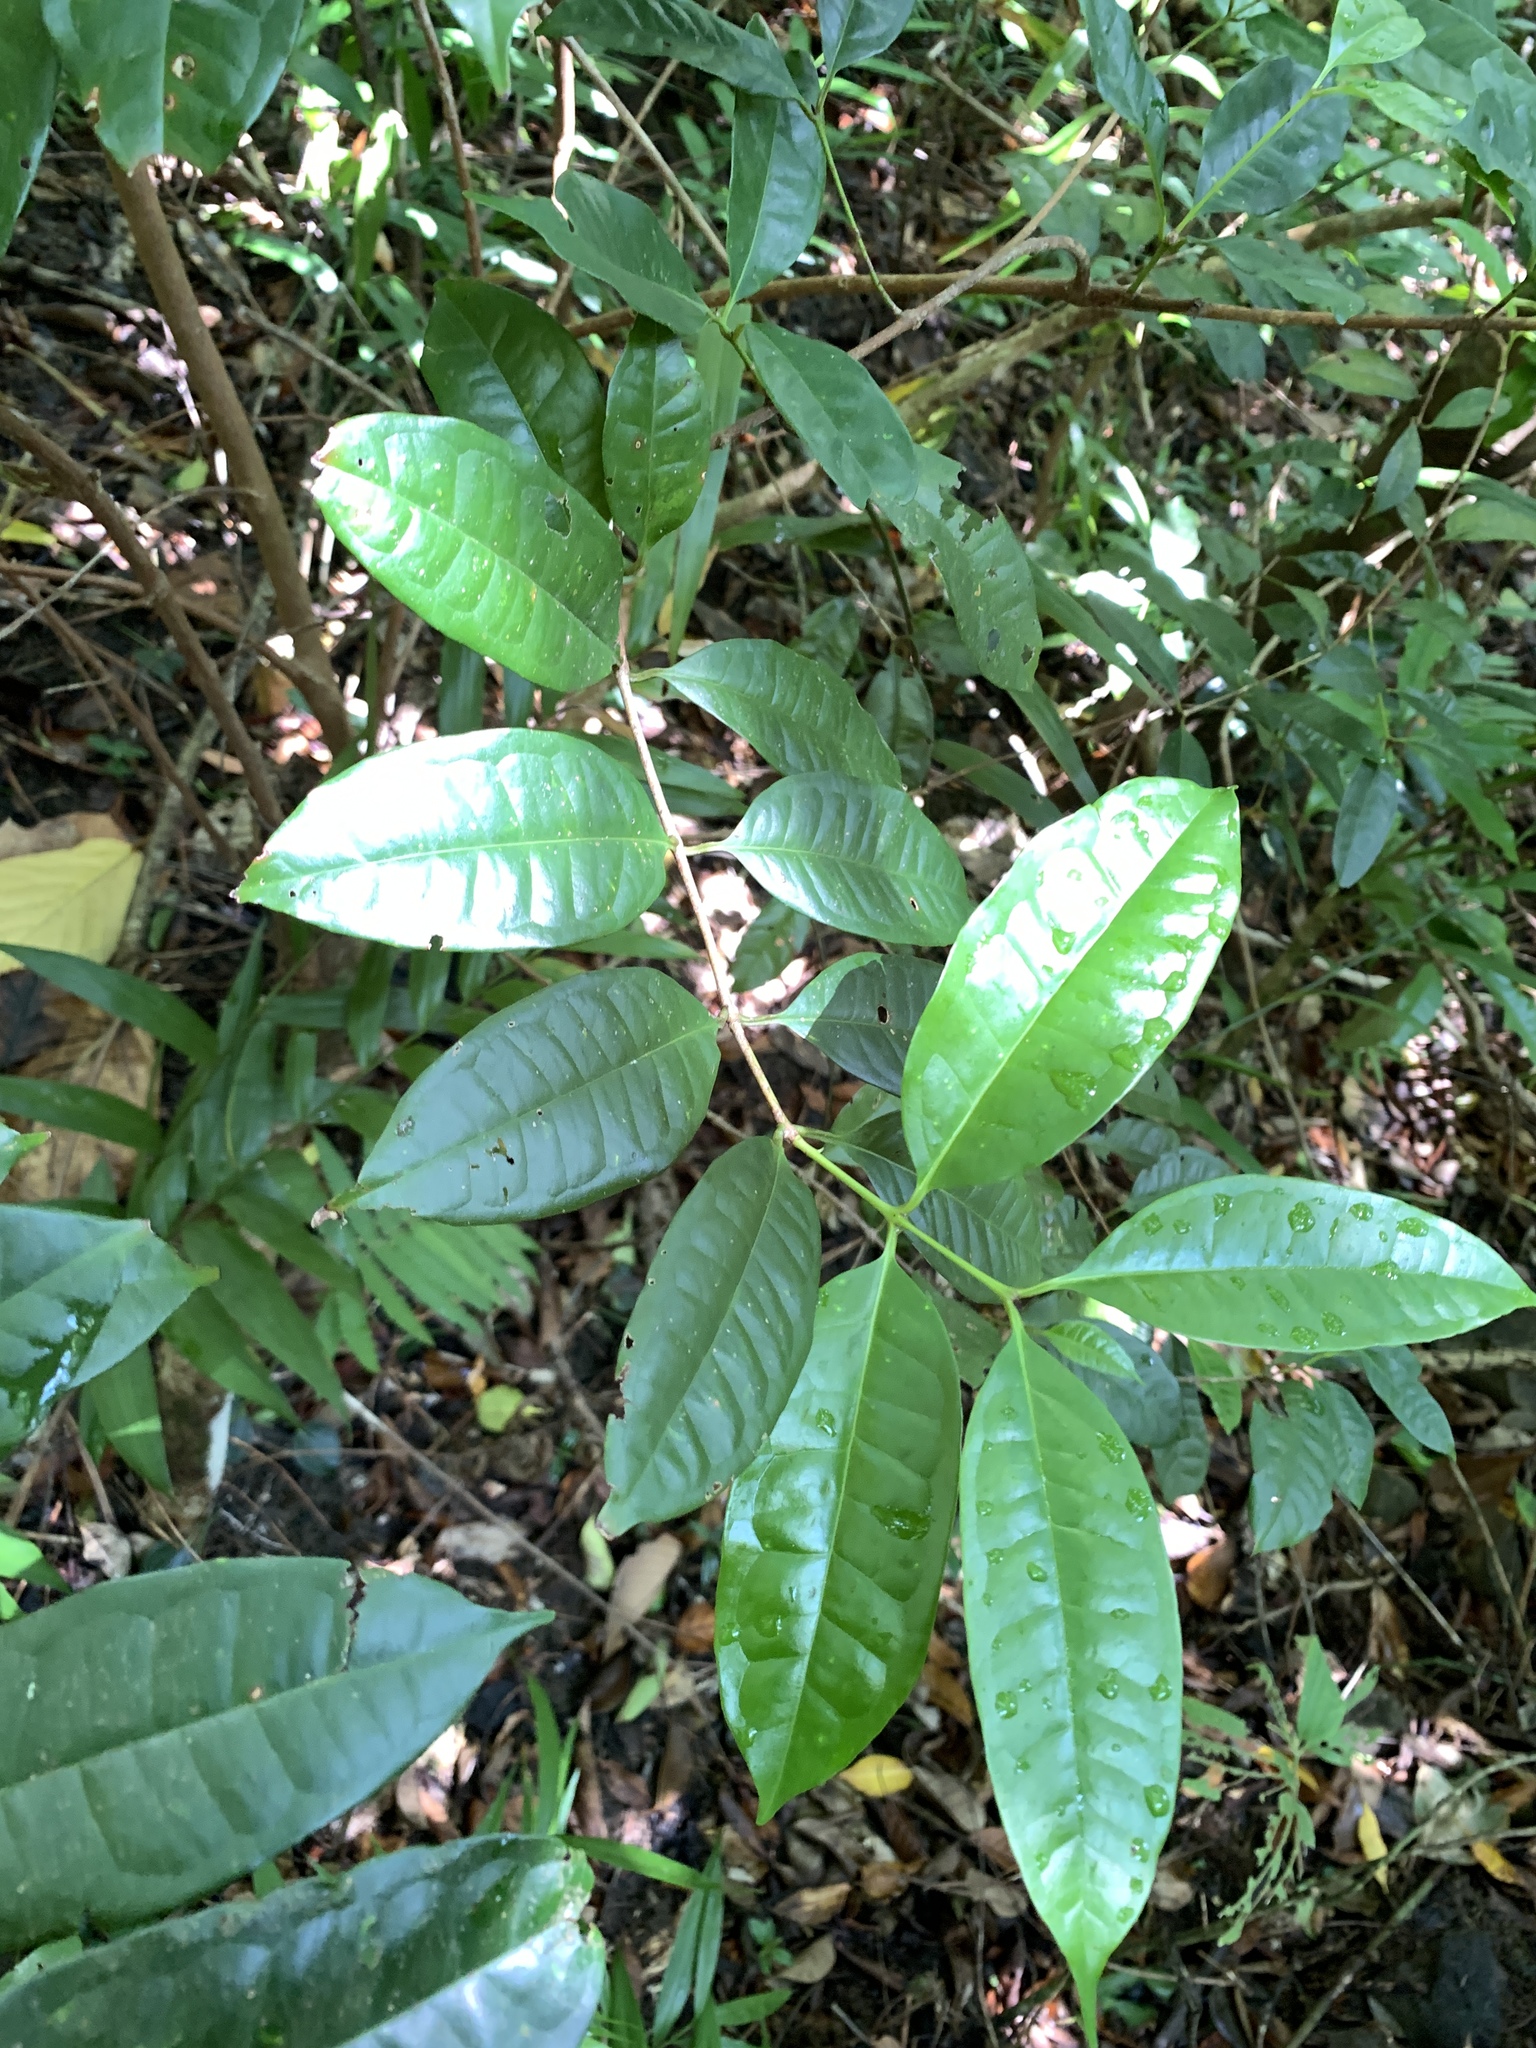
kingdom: Plantae
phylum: Tracheophyta
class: Magnoliopsida
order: Myrtales
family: Myrtaceae
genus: Syzygium
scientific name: Syzygium tripinnatum
